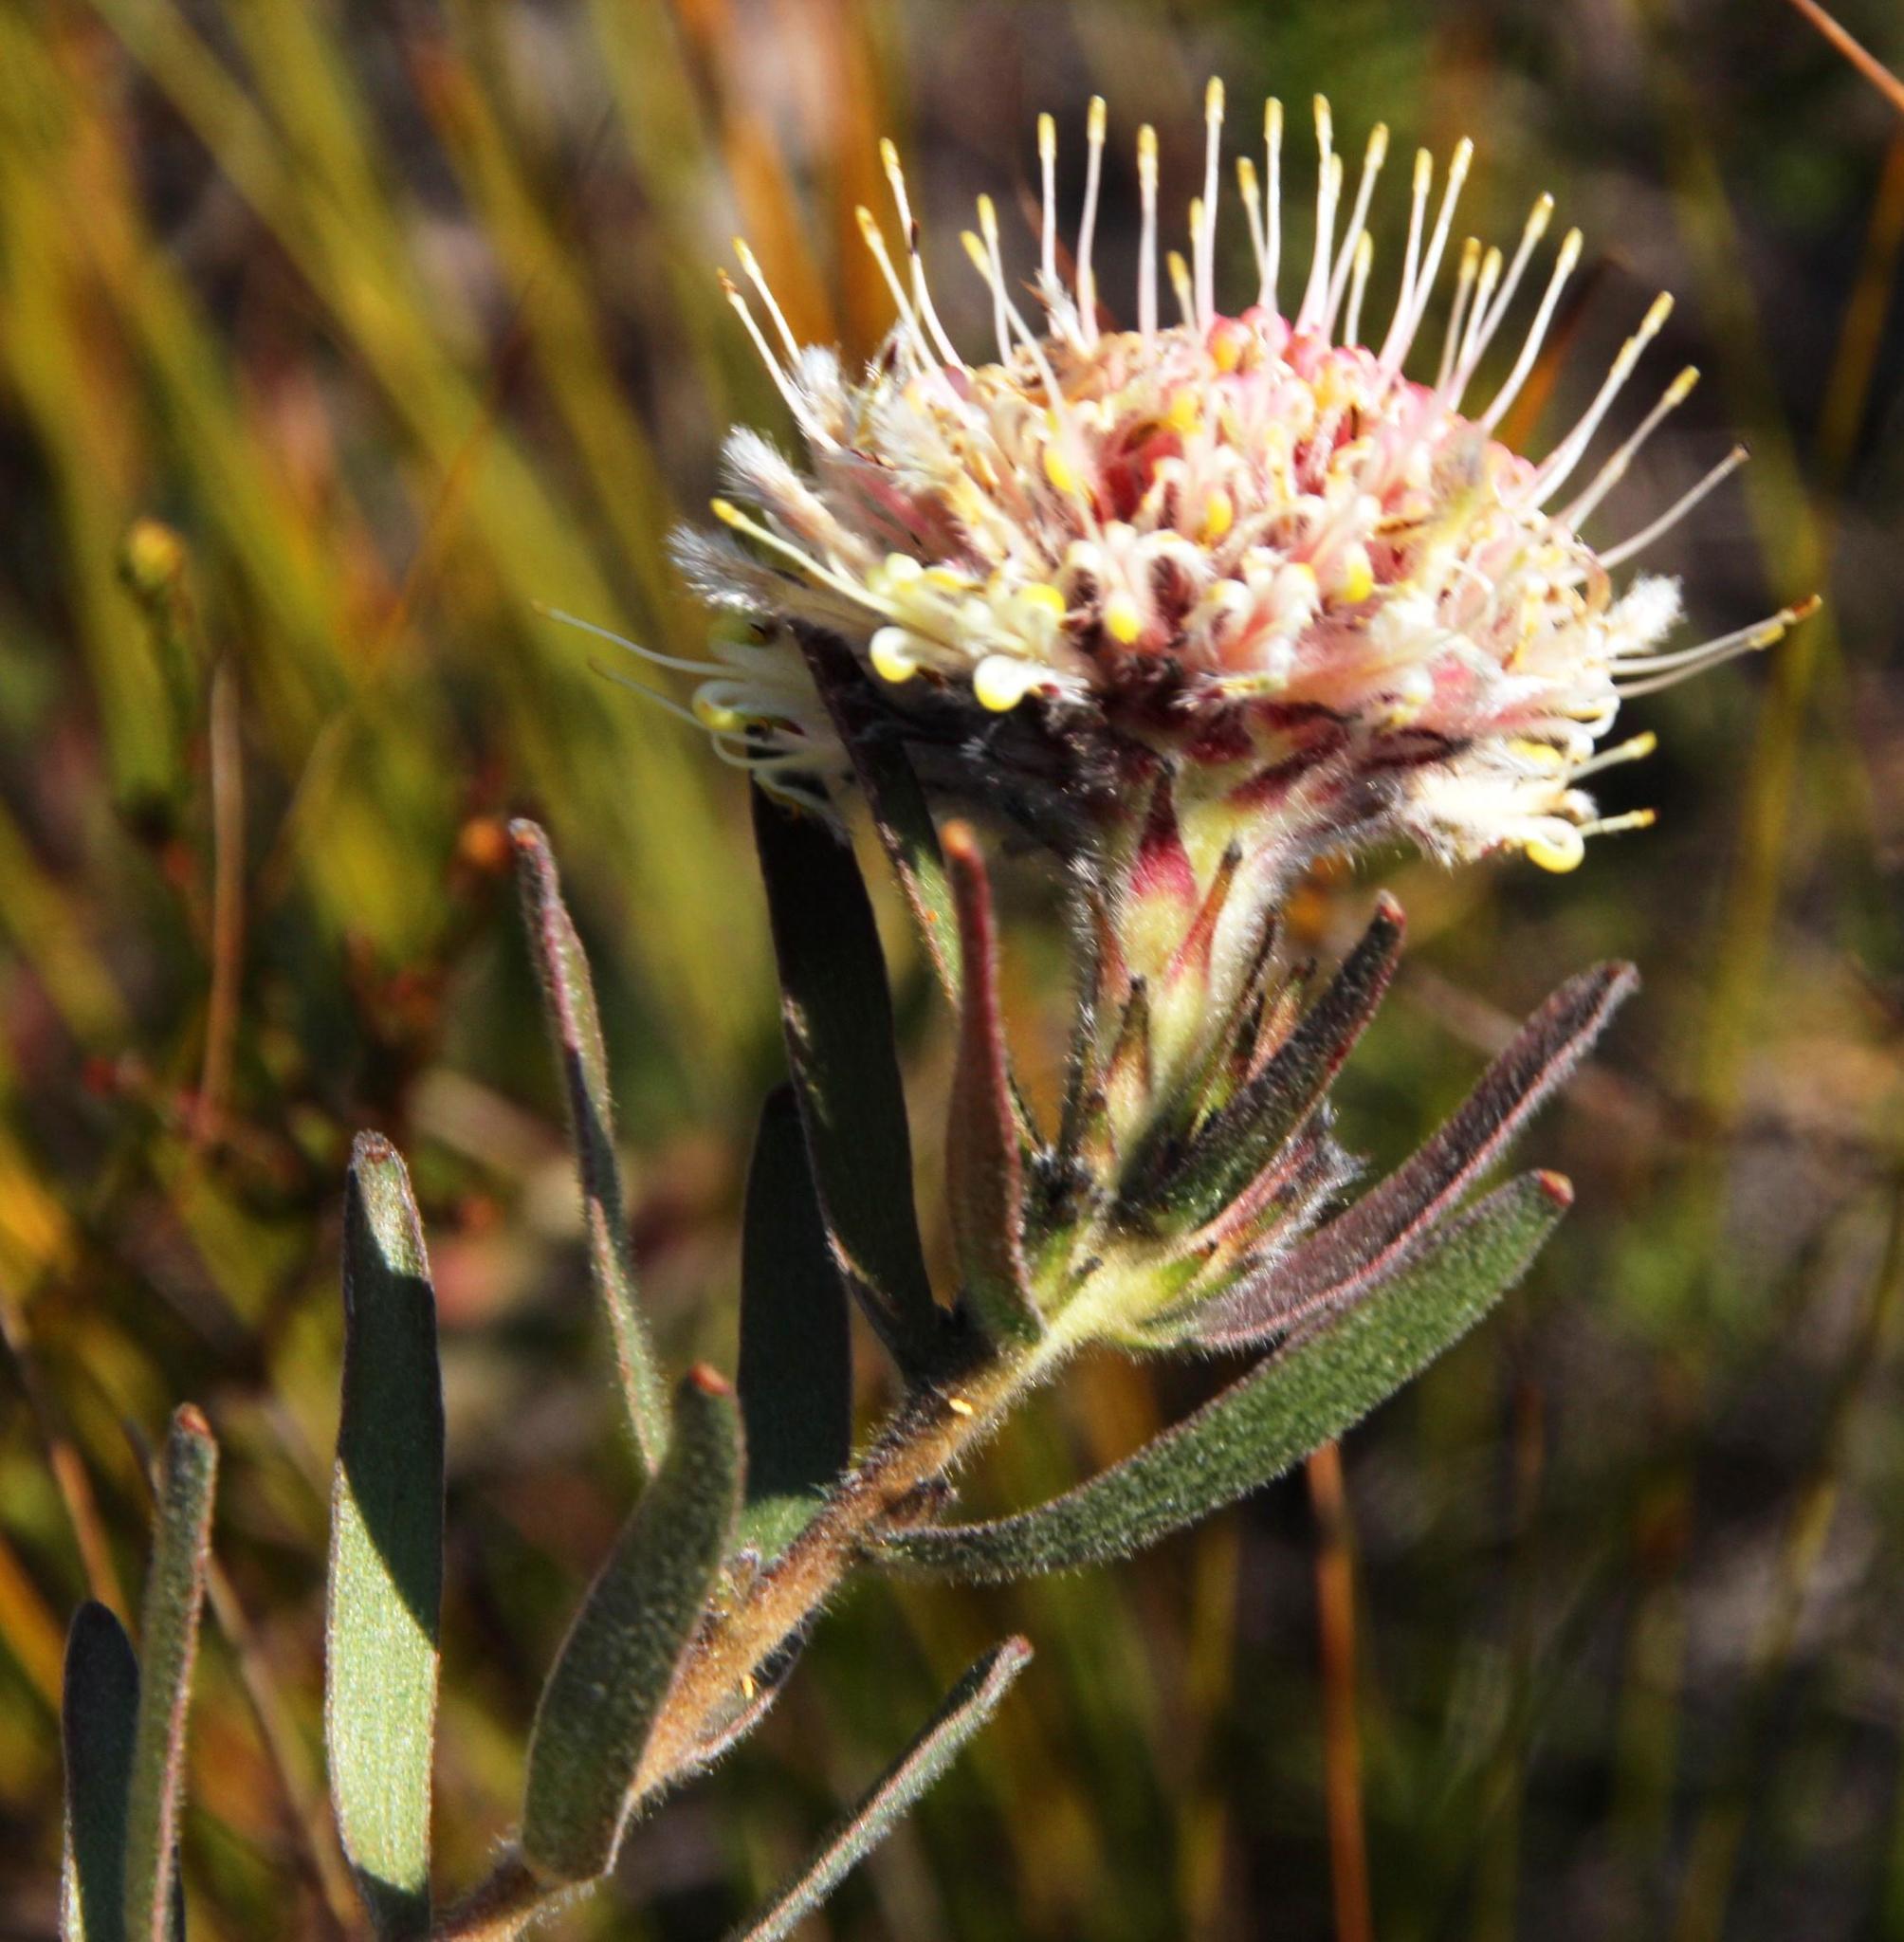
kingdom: Plantae
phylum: Tracheophyta
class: Magnoliopsida
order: Proteales
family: Proteaceae
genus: Leucospermum
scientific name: Leucospermum pedunculatum
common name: White-trailing pincushion
